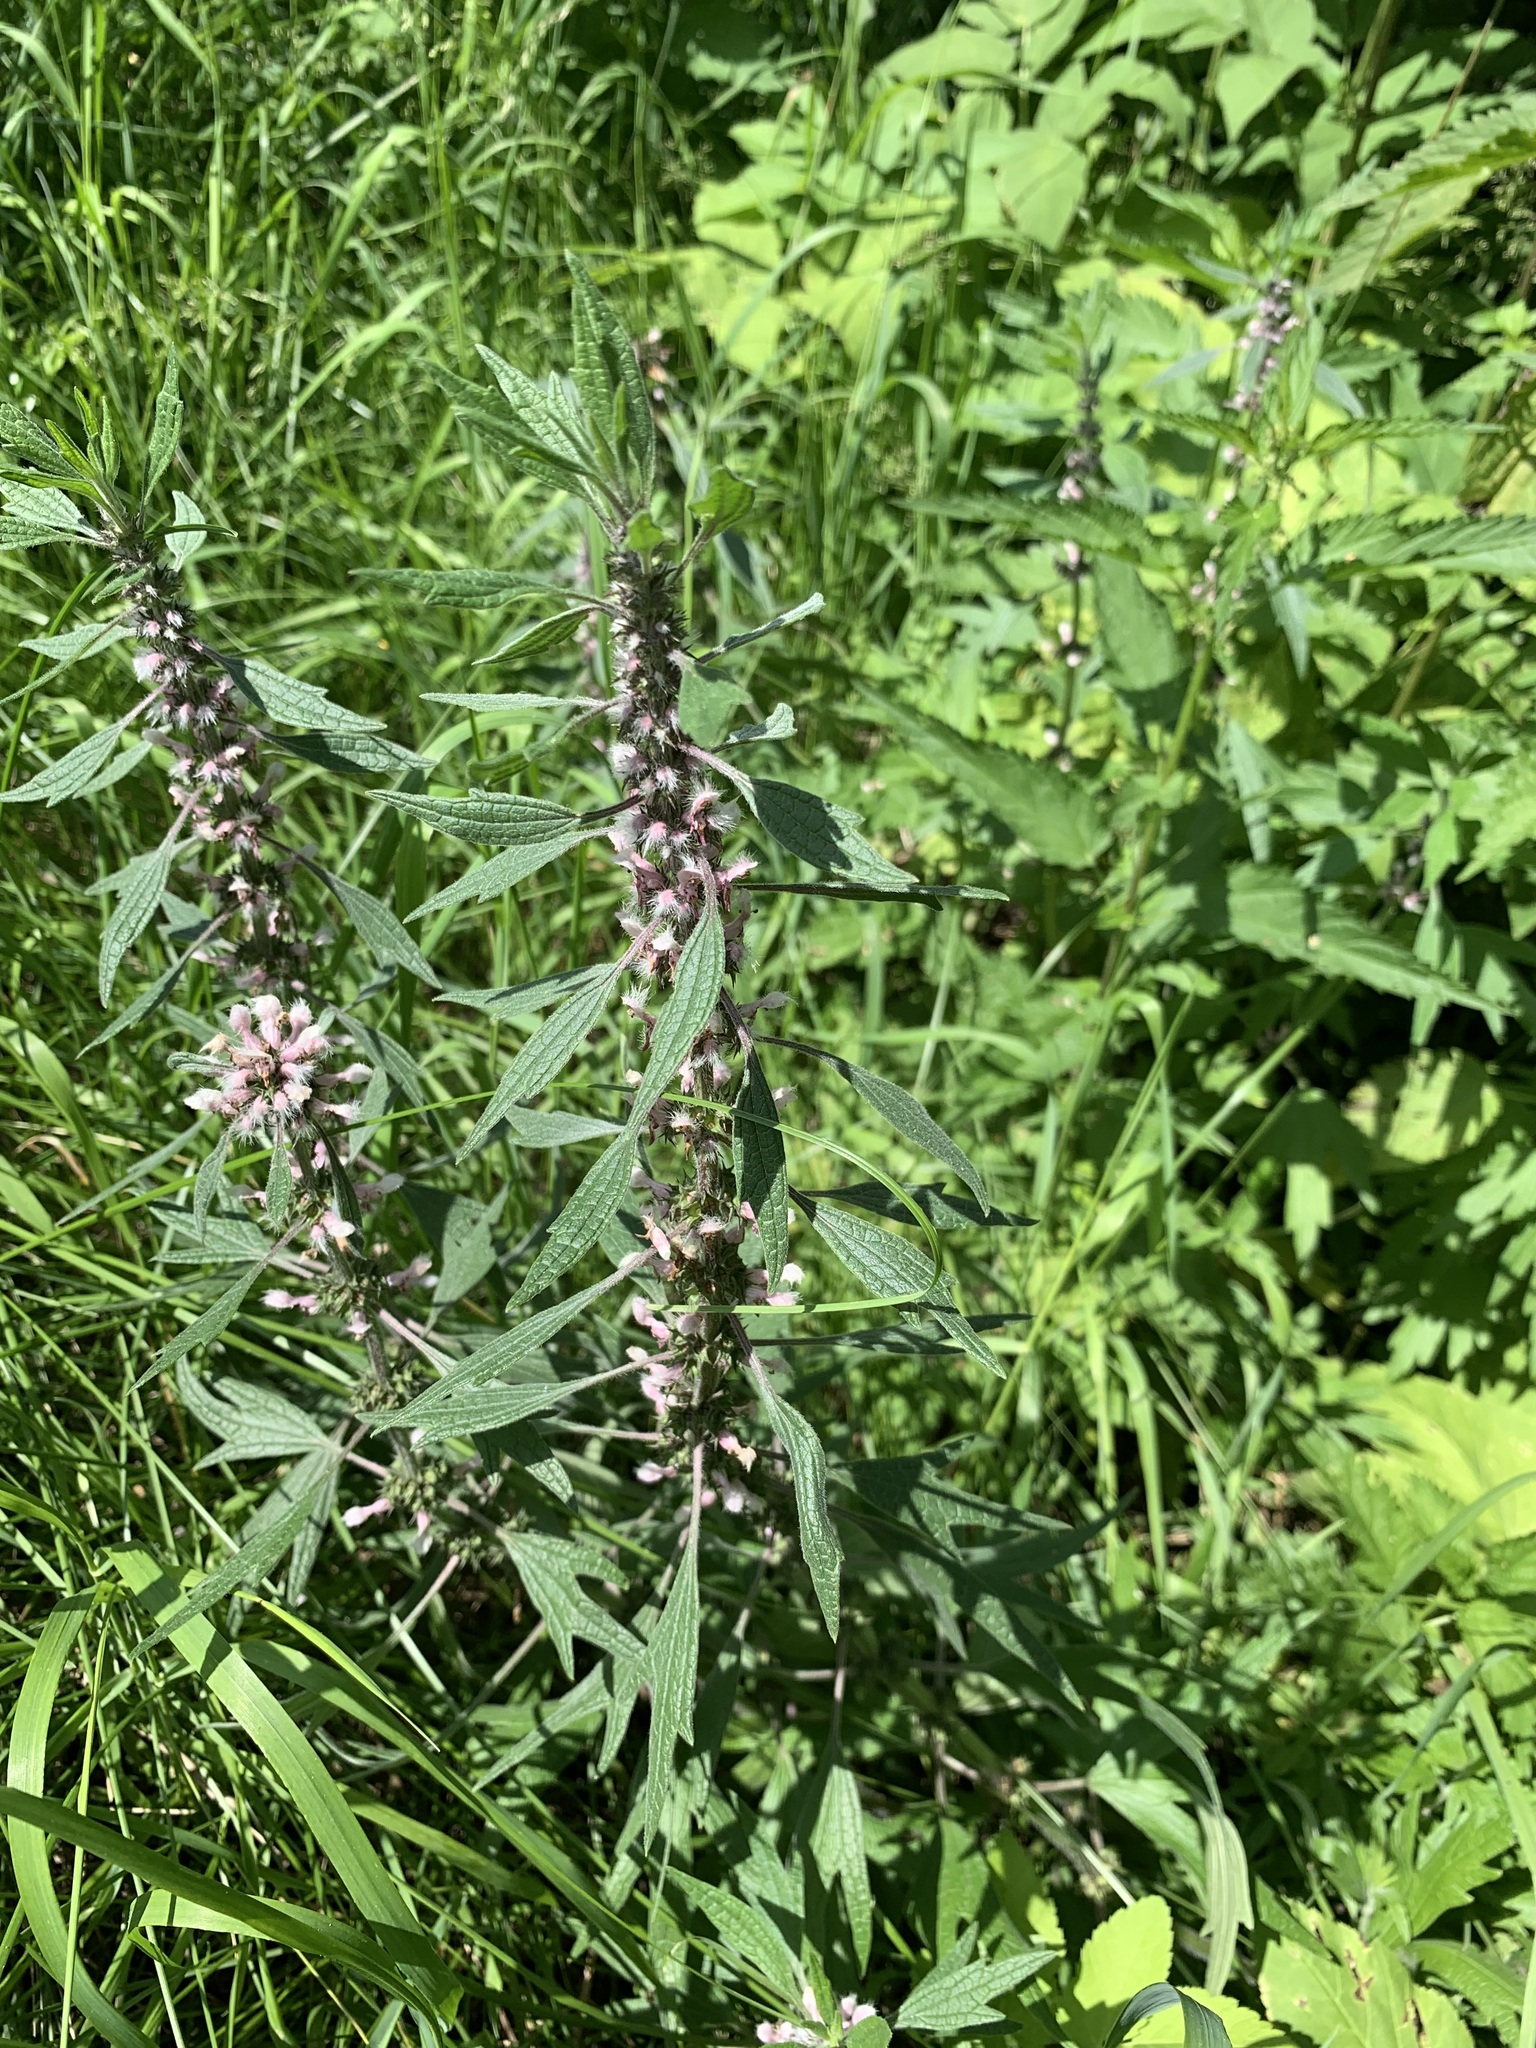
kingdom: Plantae
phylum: Tracheophyta
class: Magnoliopsida
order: Lamiales
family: Lamiaceae
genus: Leonurus
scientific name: Leonurus quinquelobatus
